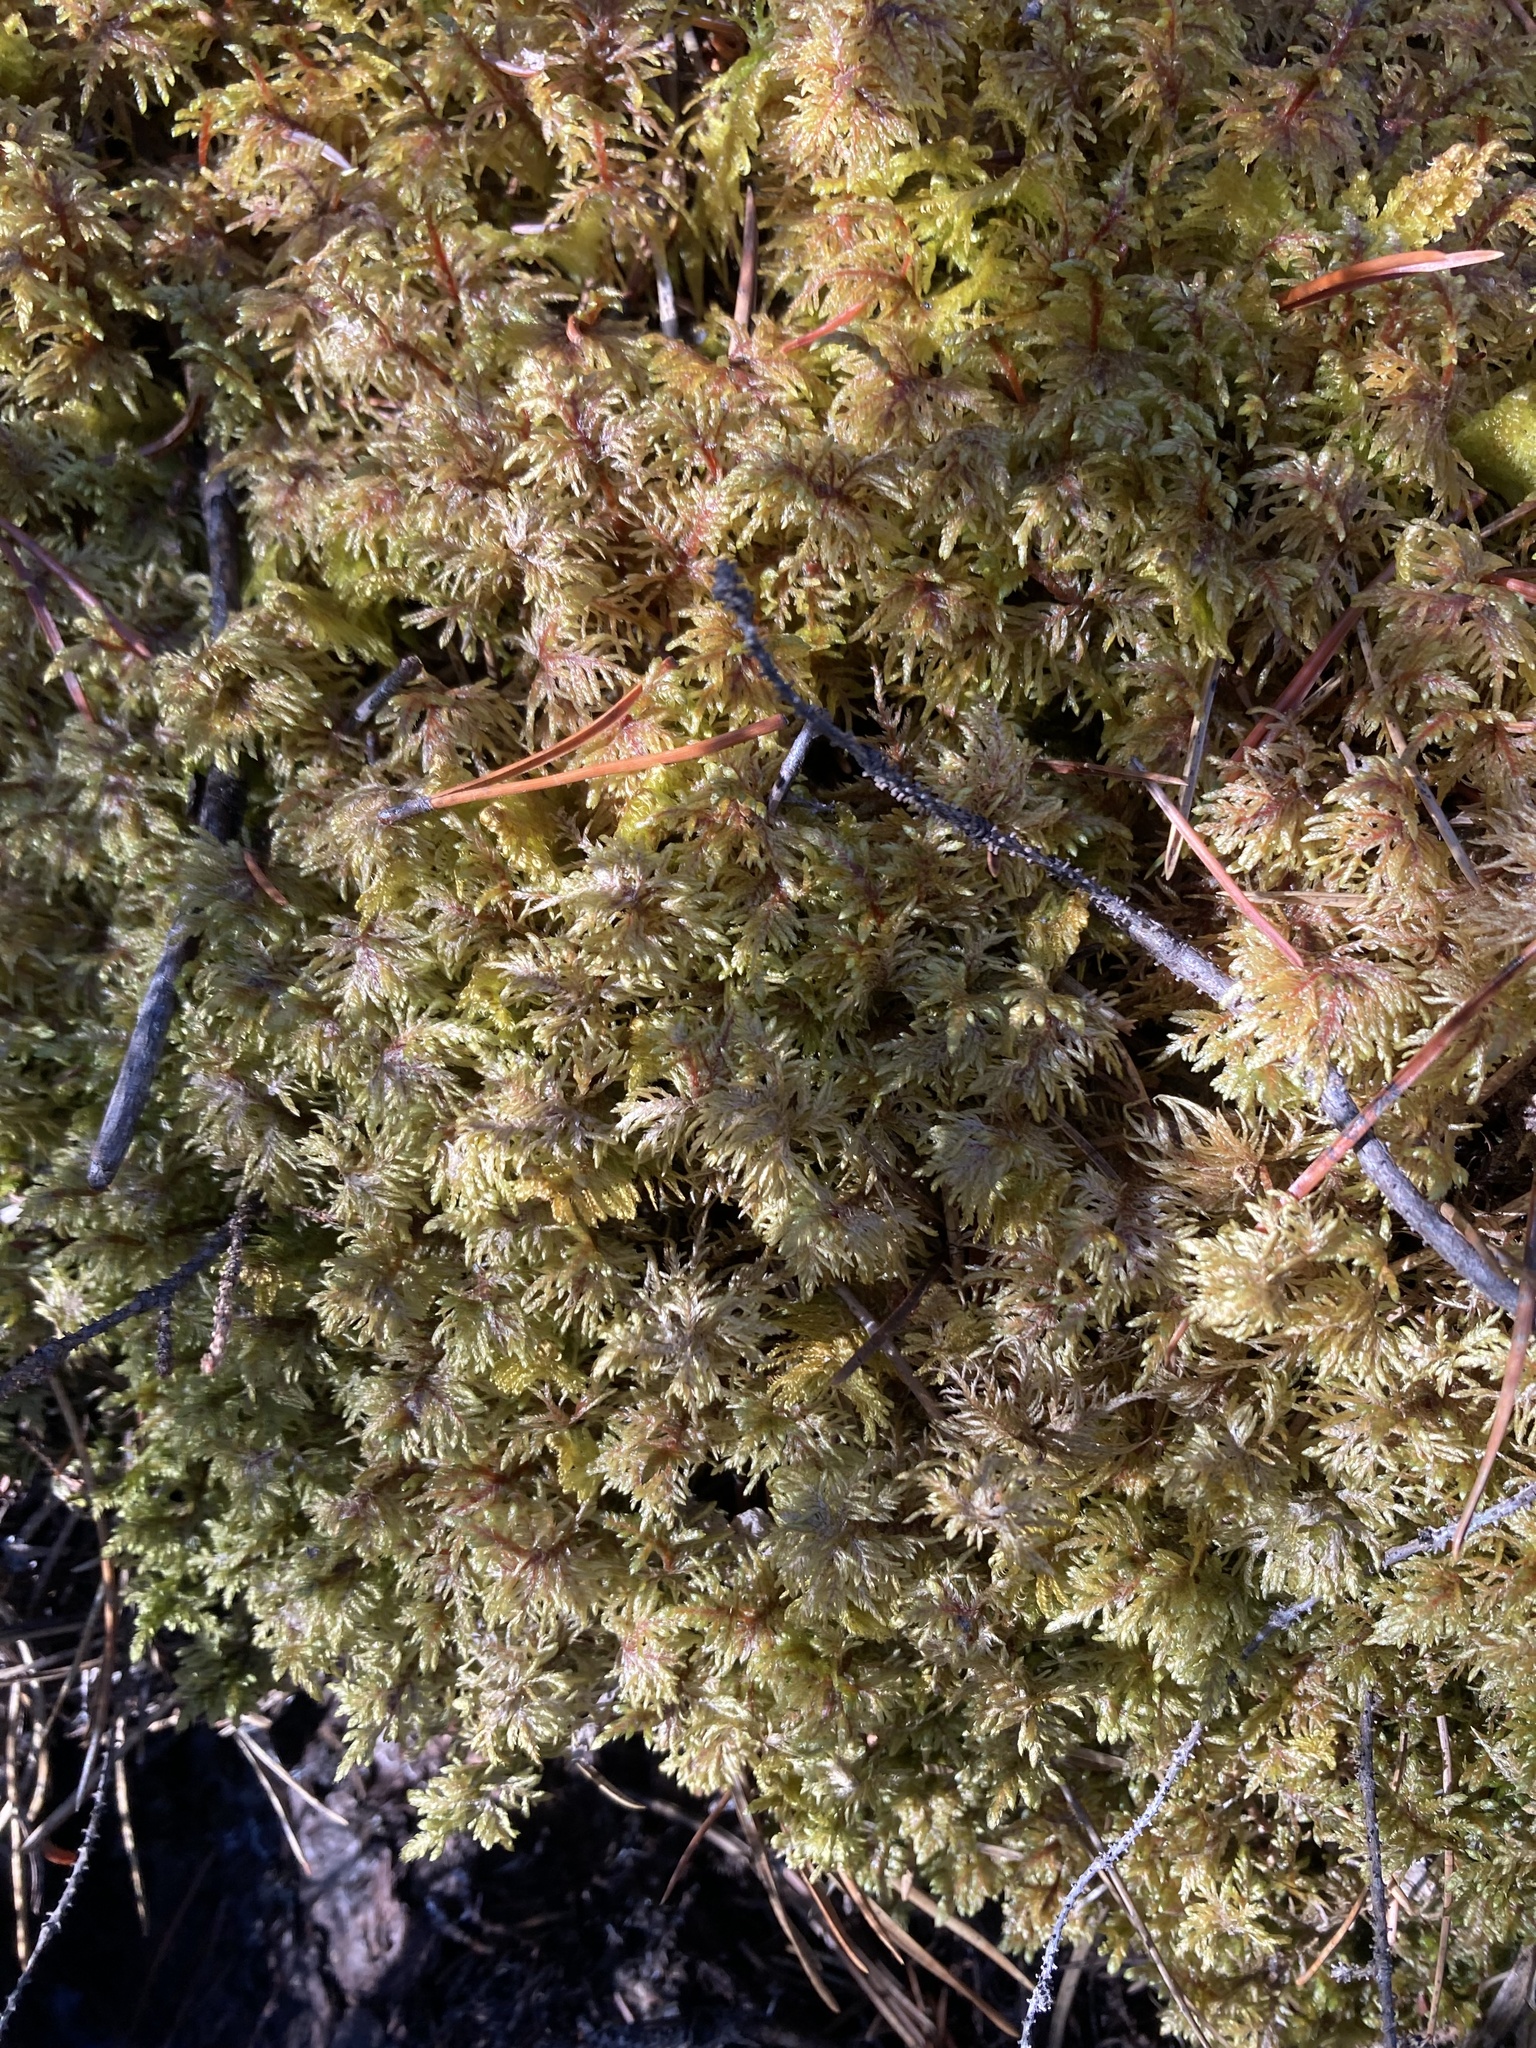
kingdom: Plantae
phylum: Bryophyta
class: Bryopsida
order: Hypnales
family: Hylocomiaceae
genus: Hylocomium
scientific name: Hylocomium splendens
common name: Stairstep moss
